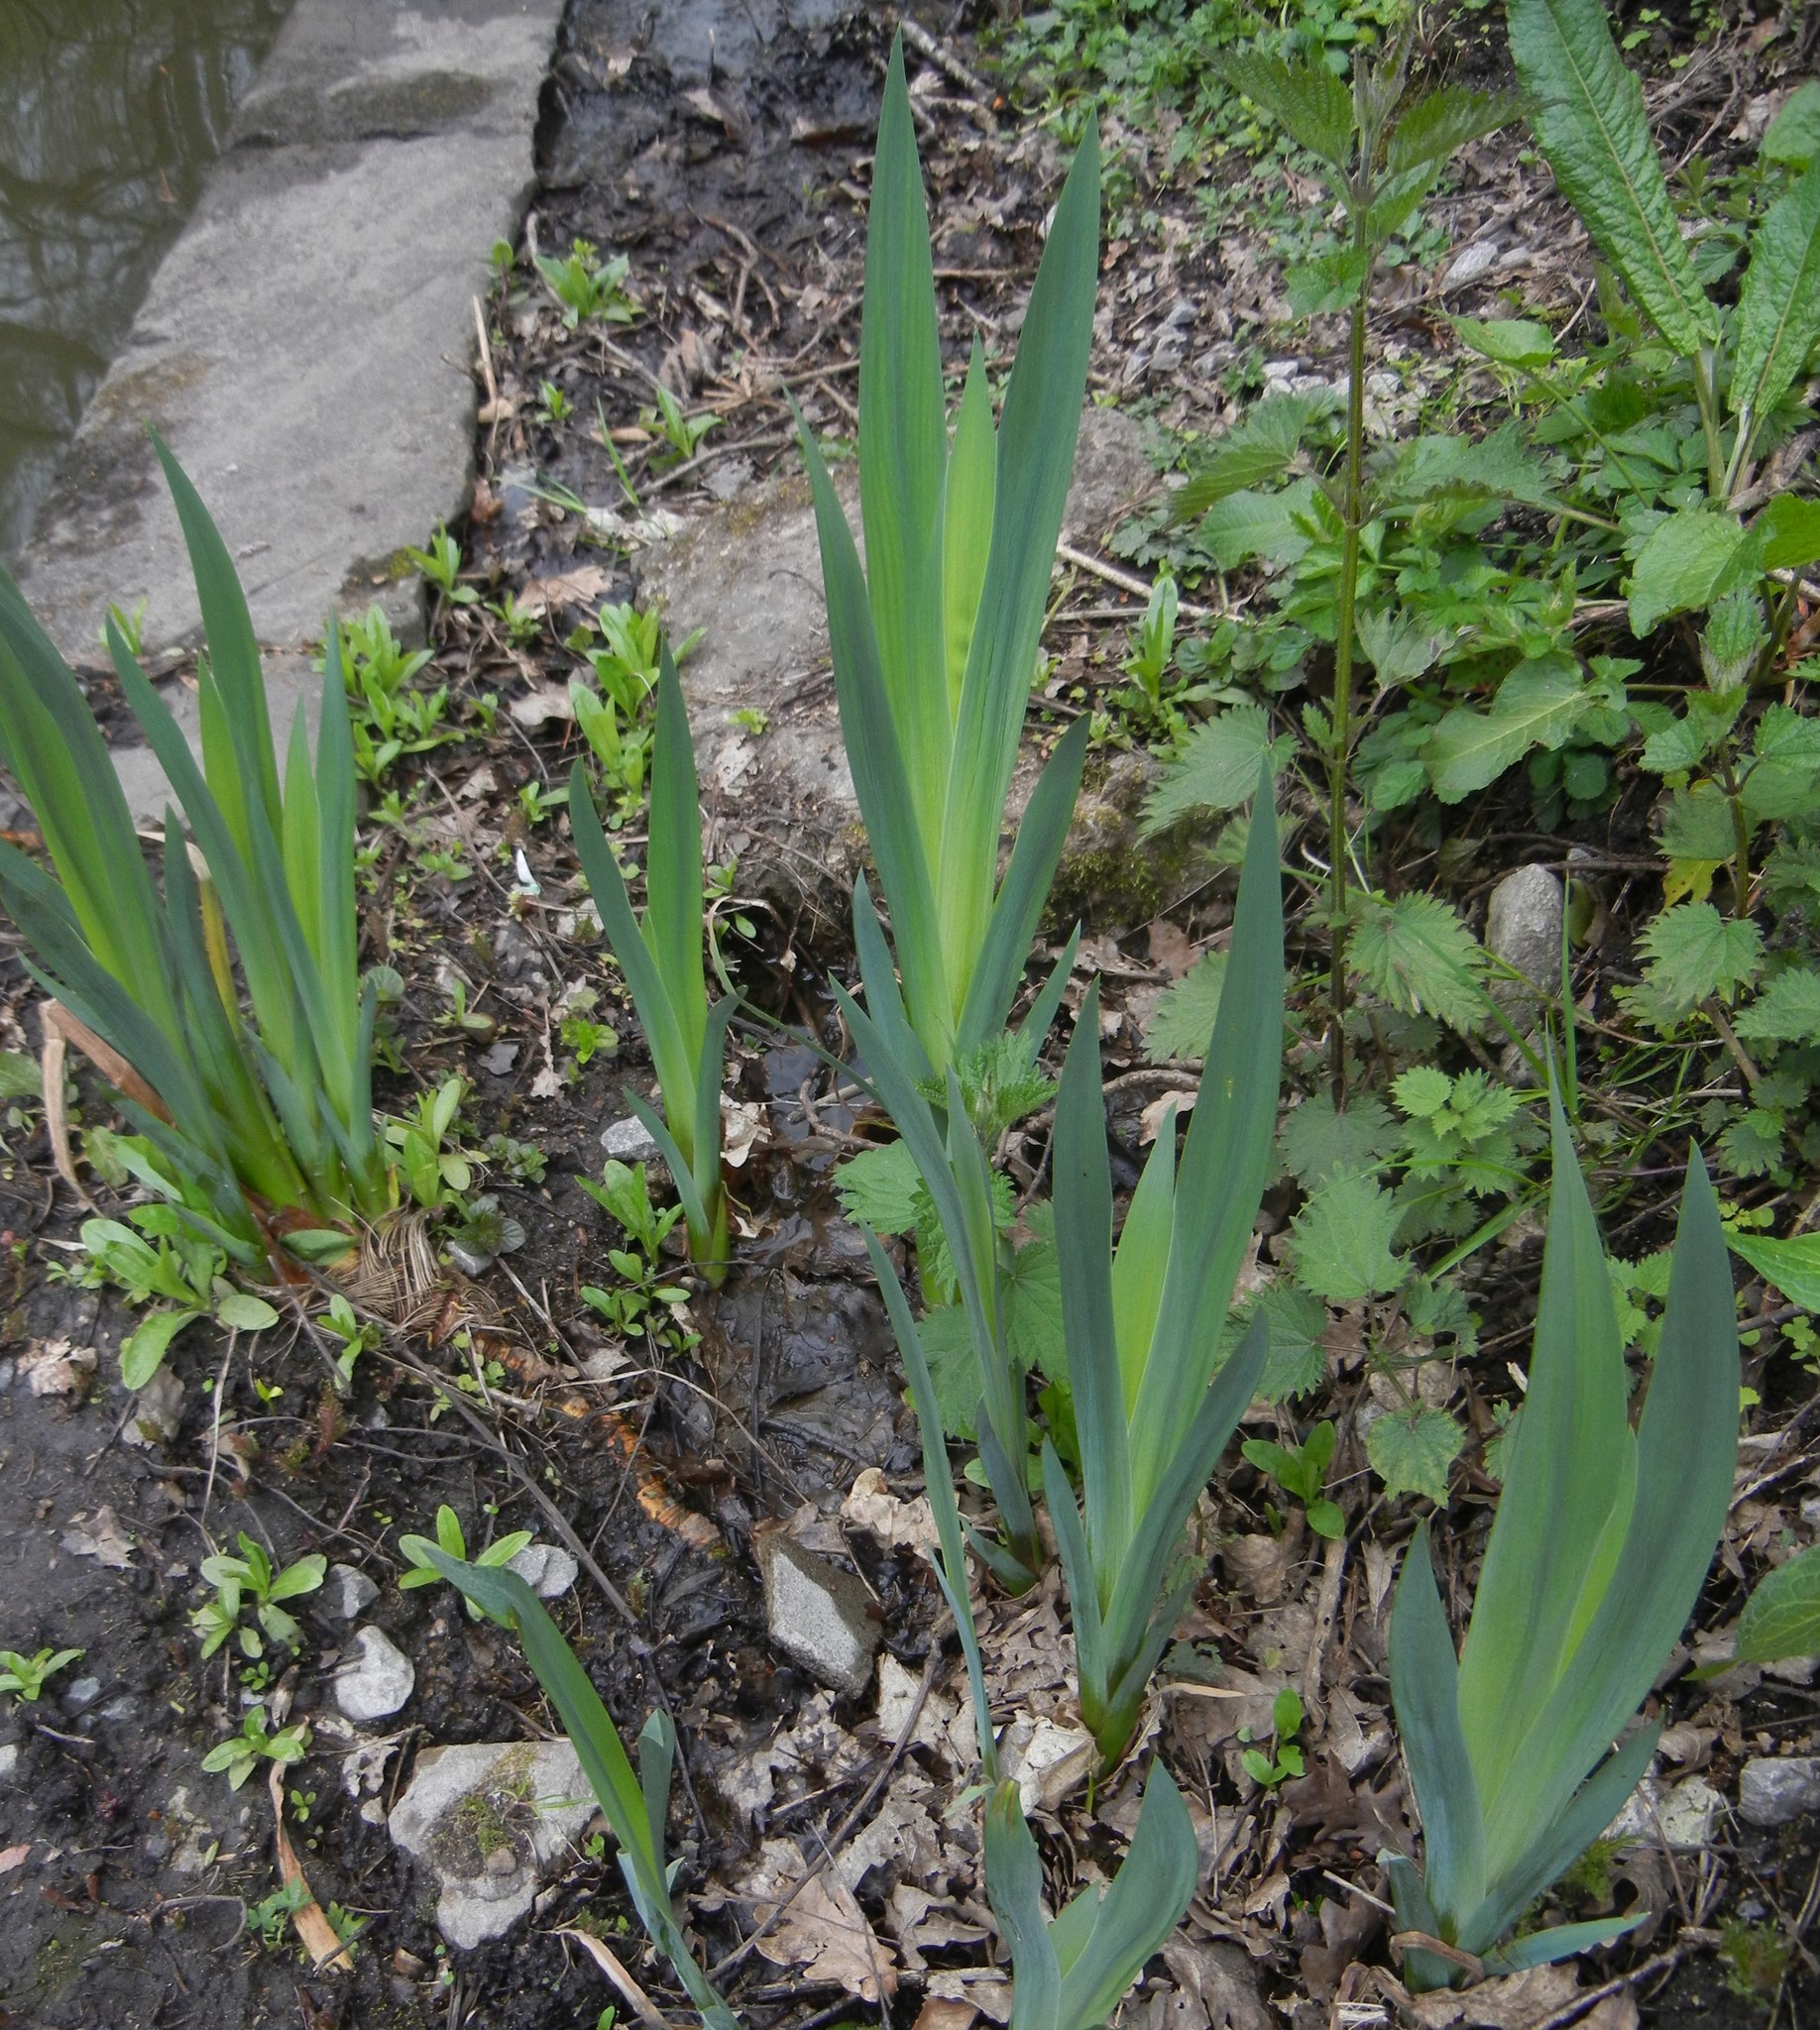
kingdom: Plantae
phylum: Tracheophyta
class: Liliopsida
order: Asparagales
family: Iridaceae
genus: Iris
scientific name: Iris pseudacorus
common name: Yellow flag
